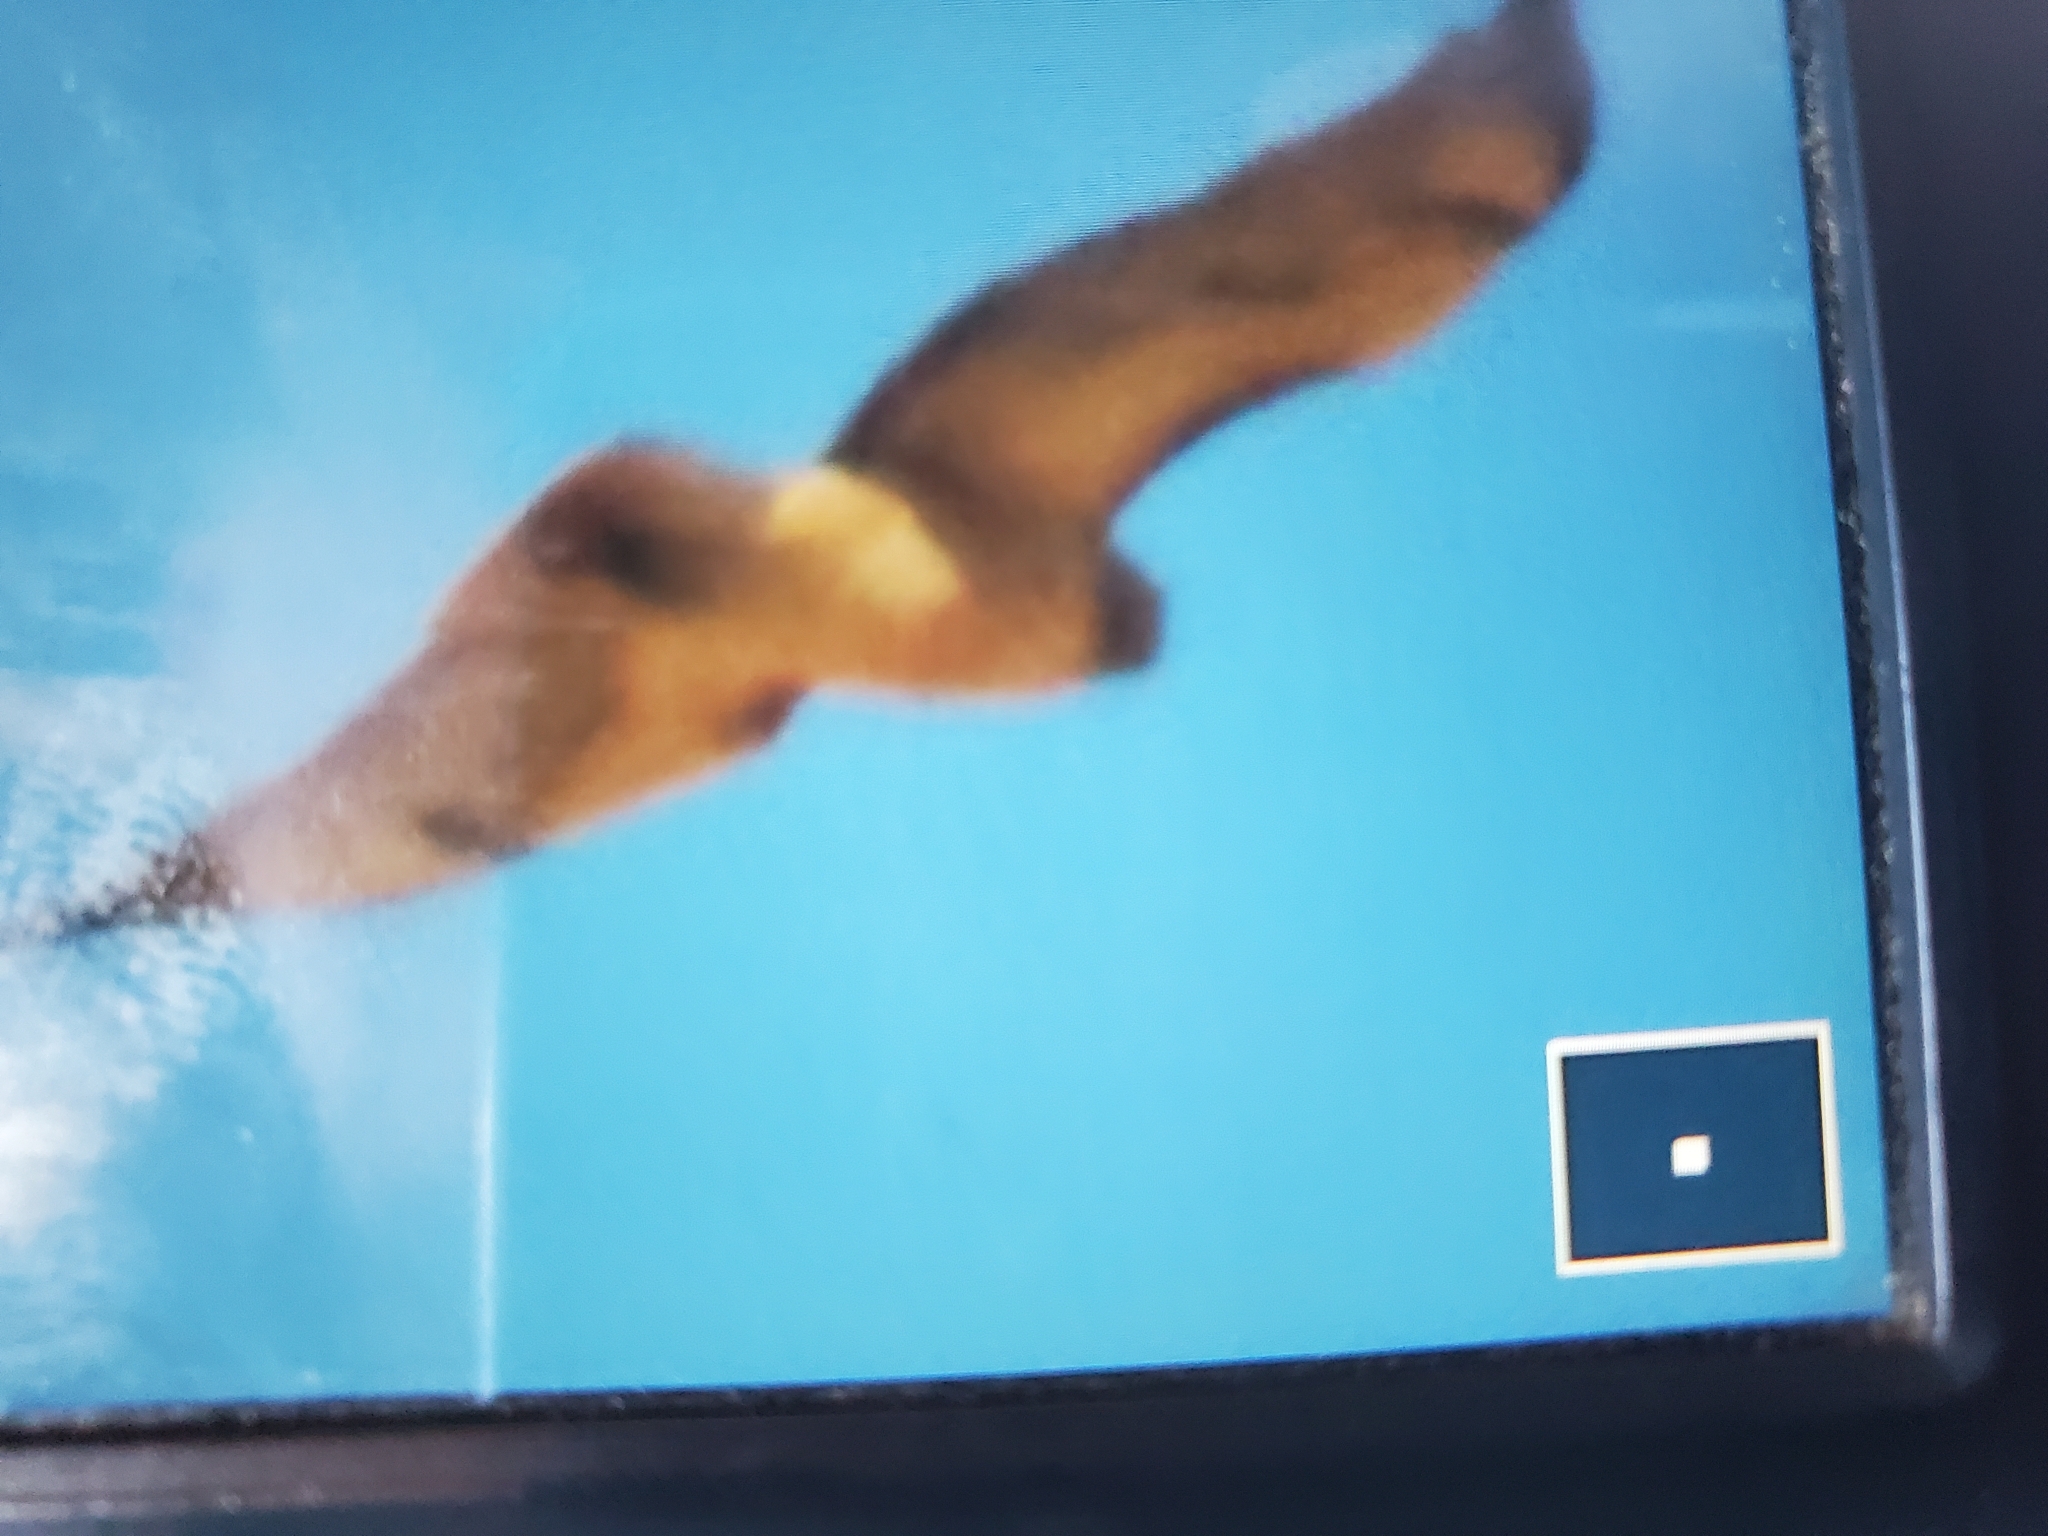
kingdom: Animalia
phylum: Chordata
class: Aves
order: Accipitriformes
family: Accipitridae
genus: Buteo
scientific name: Buteo jamaicensis
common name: Red-tailed hawk
